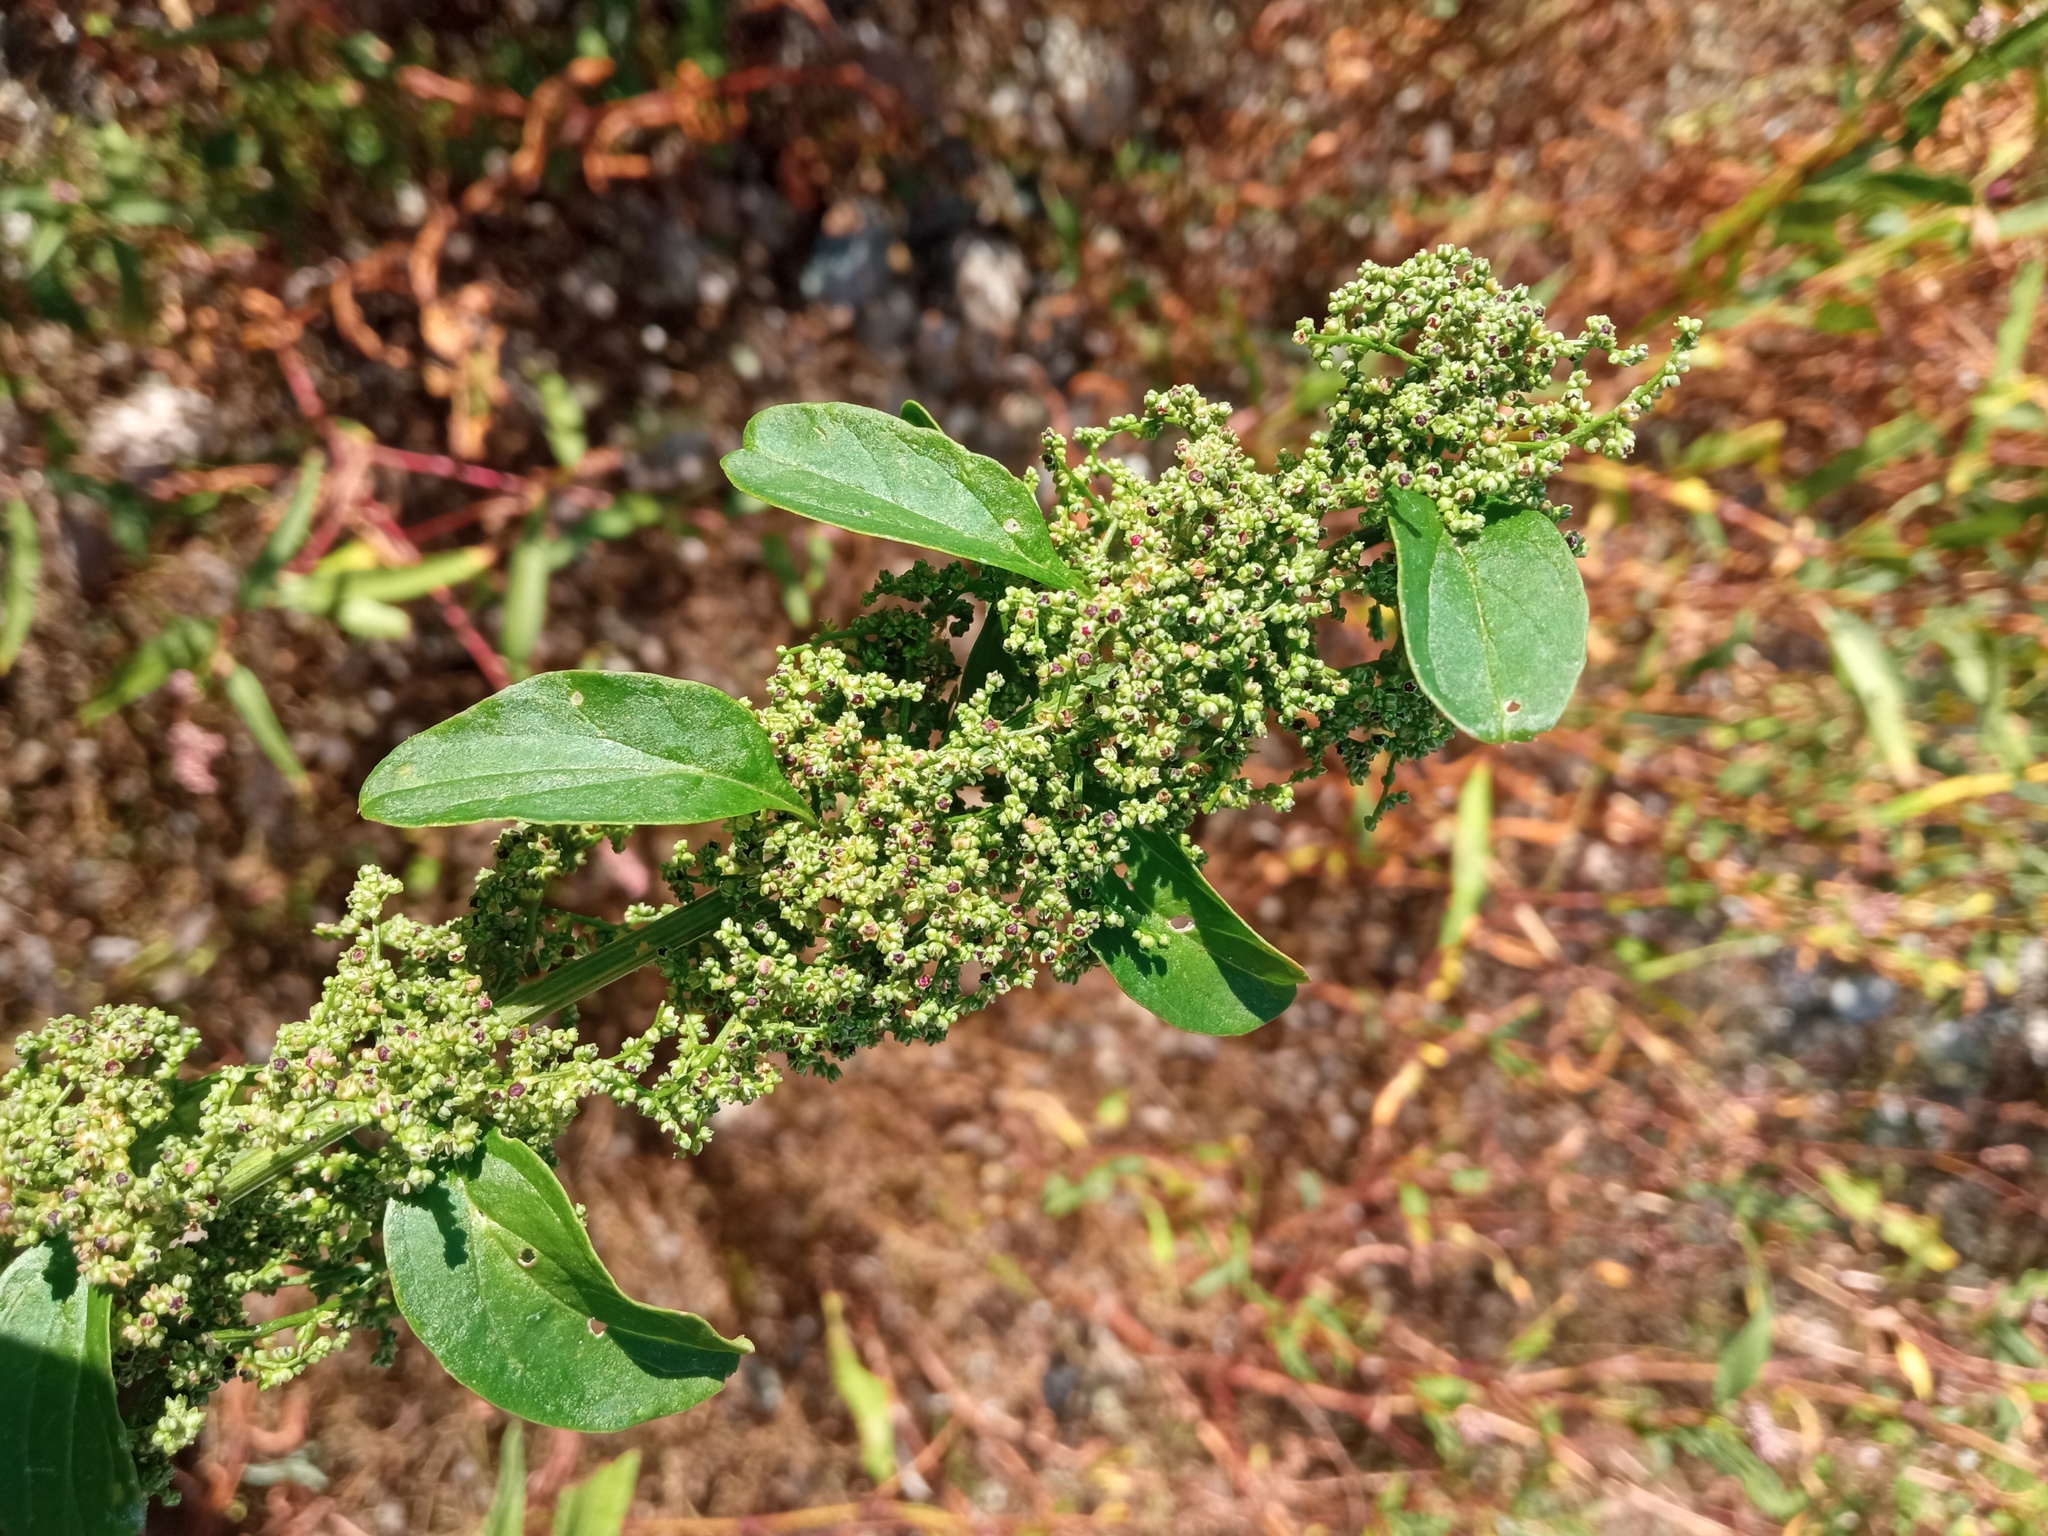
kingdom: Plantae
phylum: Tracheophyta
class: Magnoliopsida
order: Caryophyllales
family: Amaranthaceae
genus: Lipandra
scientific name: Lipandra polysperma
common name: Many-seed goosefoot
